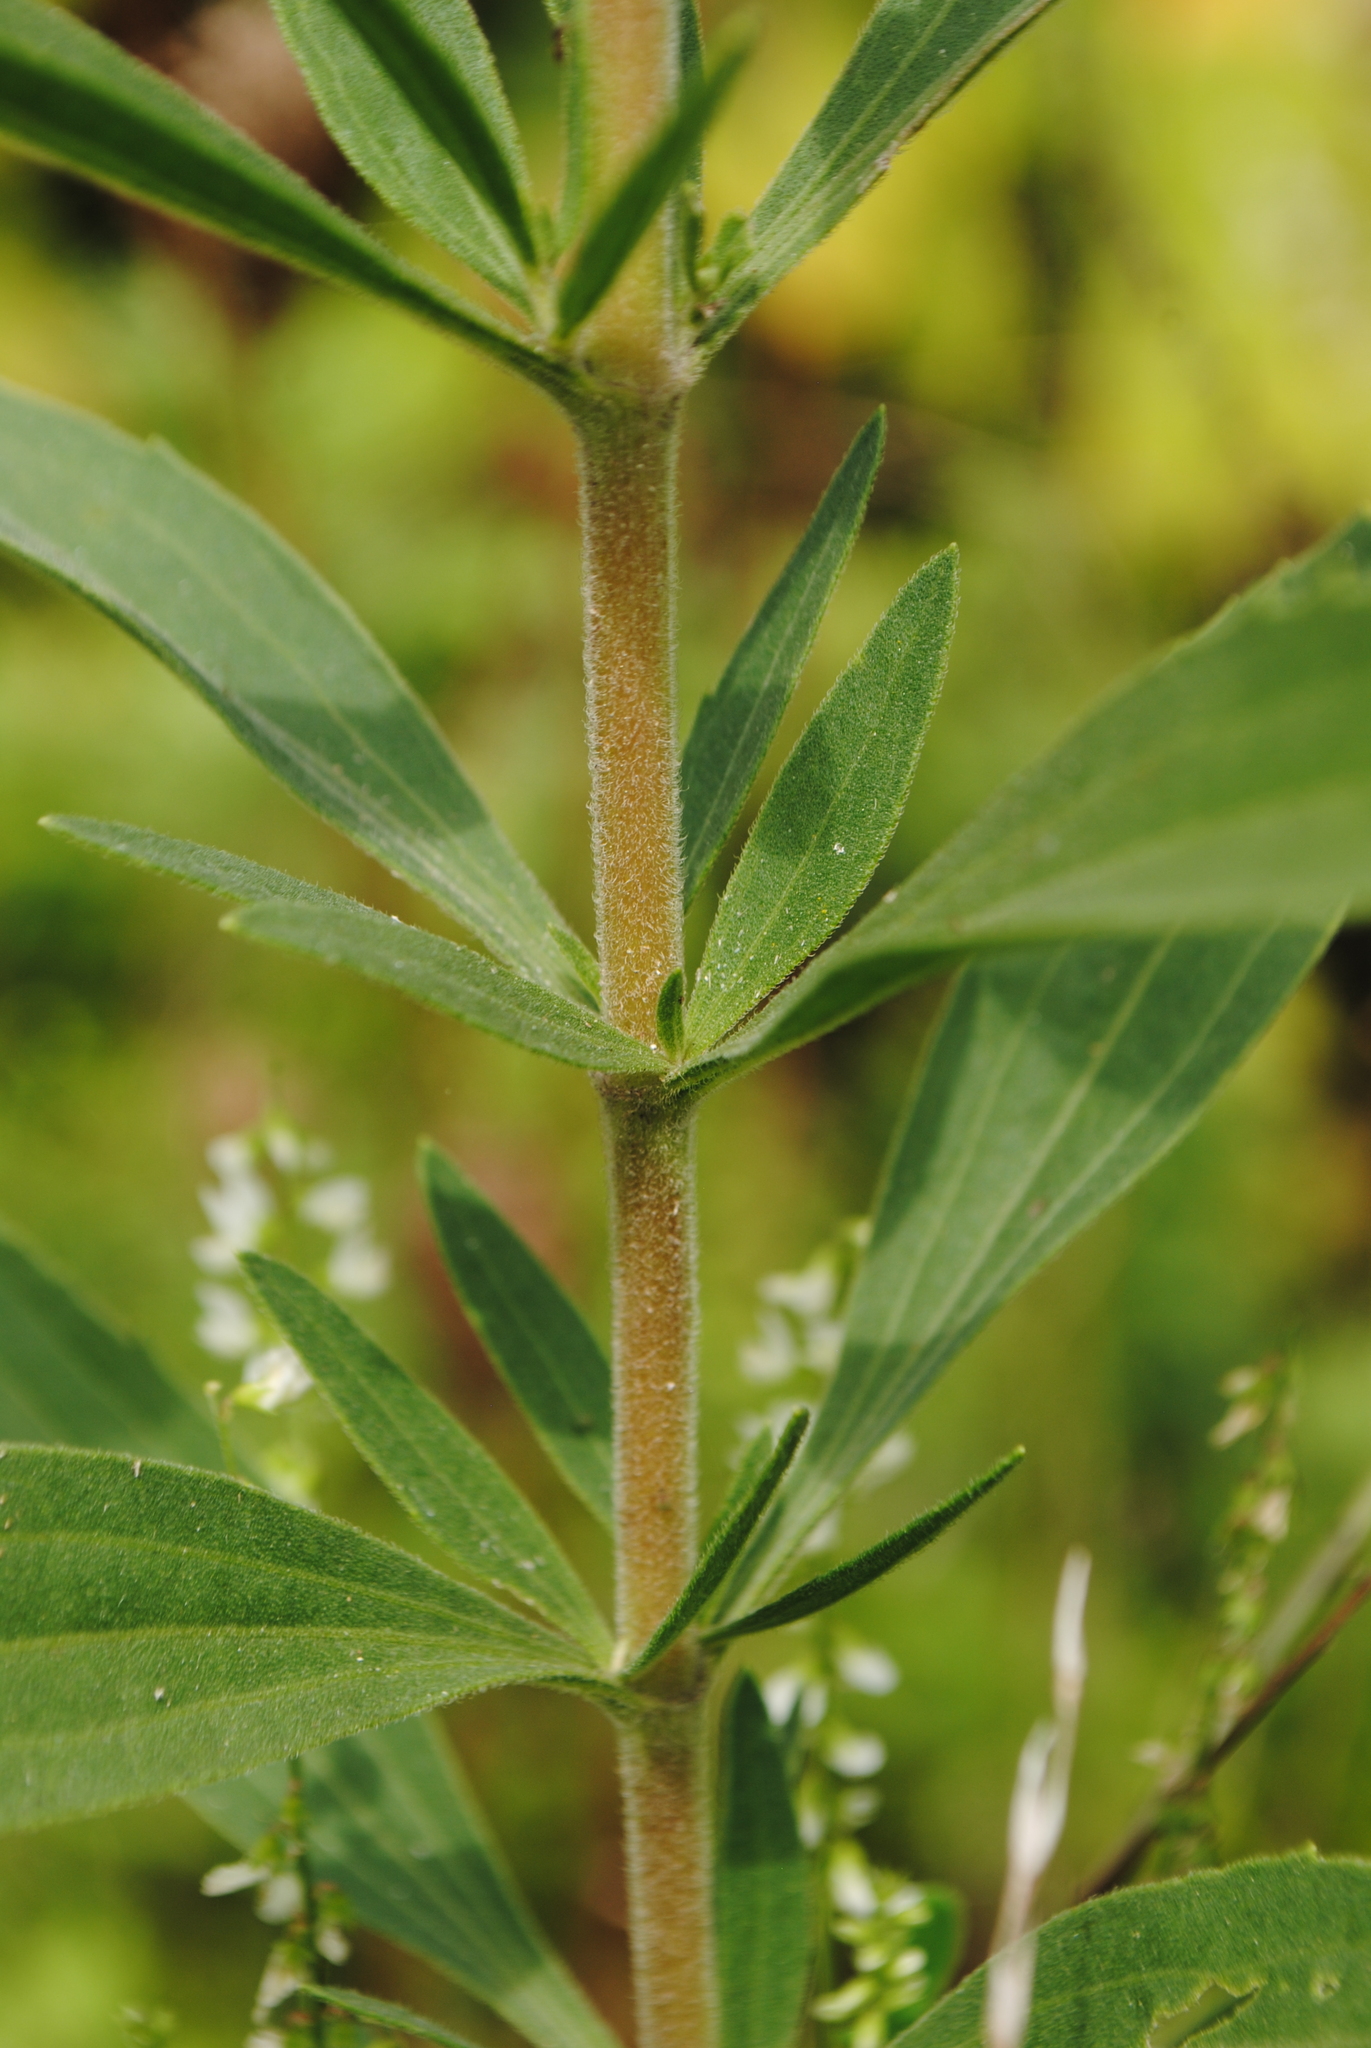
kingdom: Plantae
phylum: Tracheophyta
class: Magnoliopsida
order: Asterales
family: Asteraceae
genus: Eupatorium
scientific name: Eupatorium altissimum
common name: Tall thoroughwort
